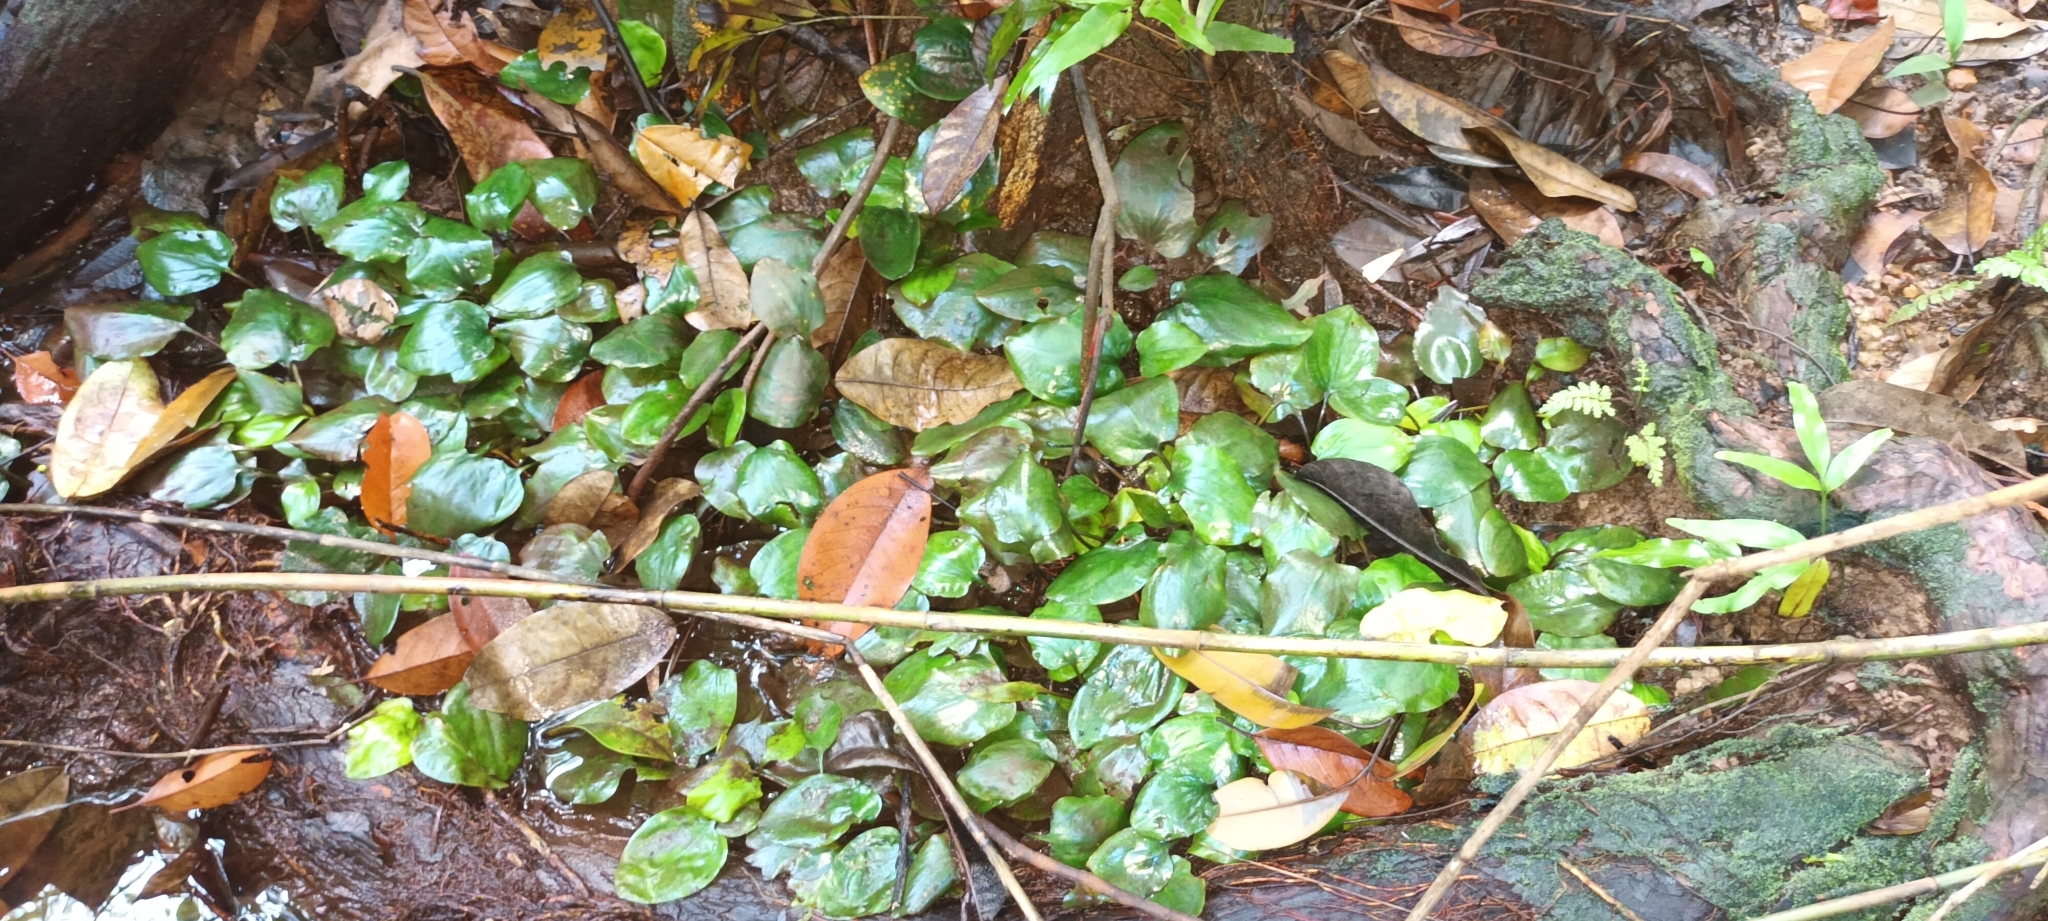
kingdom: Plantae
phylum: Tracheophyta
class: Liliopsida
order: Alismatales
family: Araceae
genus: Cryptocoryne
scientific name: Cryptocoryne griffithii
